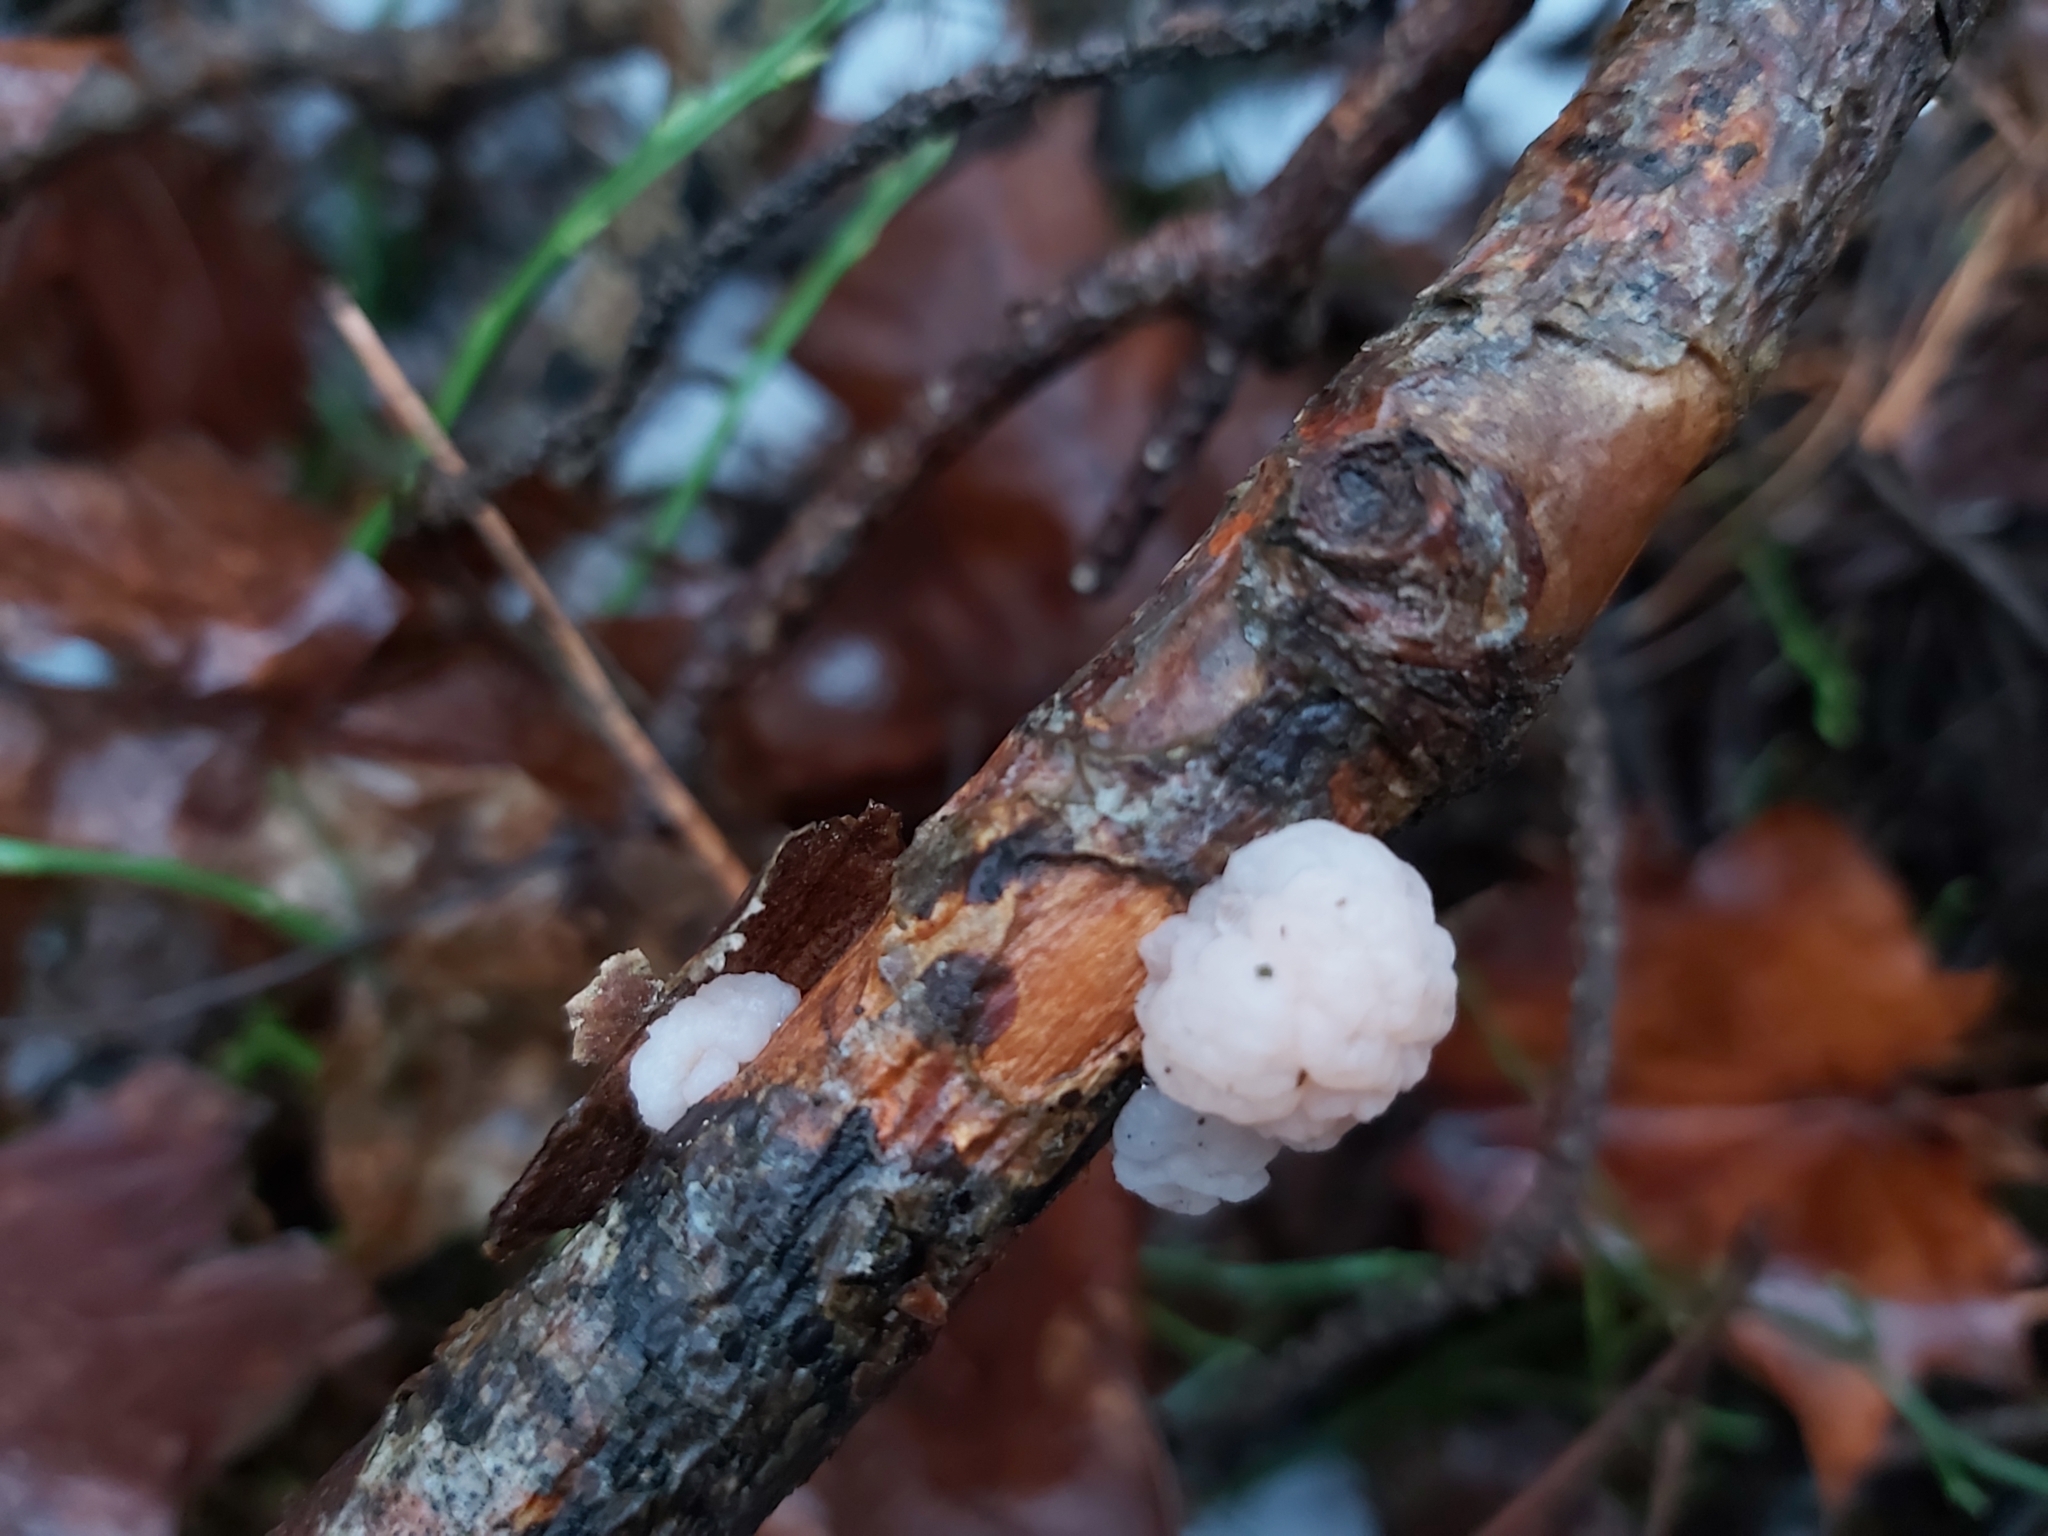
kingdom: Fungi
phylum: Basidiomycota
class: Tremellomycetes
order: Tremellales
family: Naemateliaceae
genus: Naematelia
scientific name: Naematelia encephala
